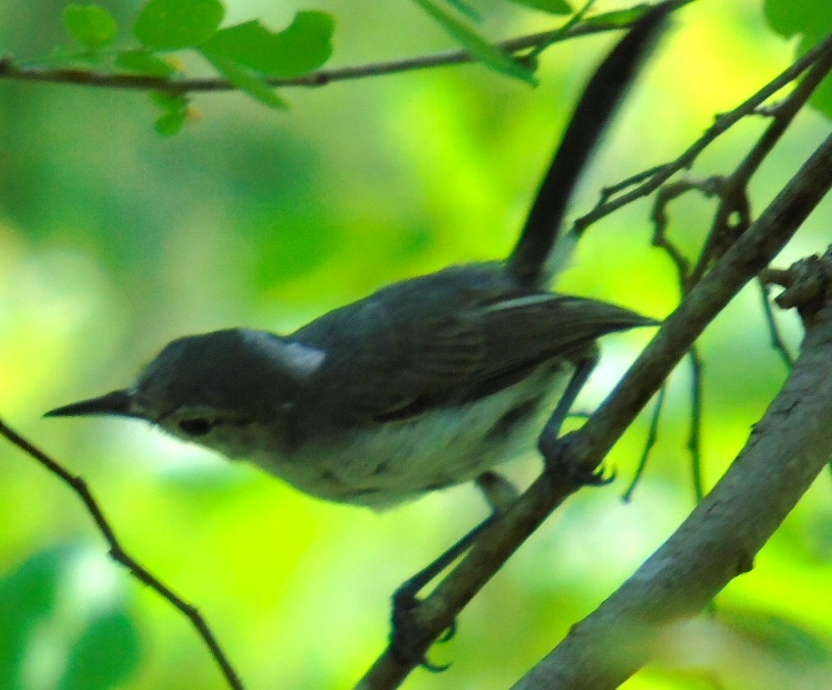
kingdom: Animalia
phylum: Chordata
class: Aves
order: Passeriformes
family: Polioptilidae
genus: Polioptila
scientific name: Polioptila caerulea
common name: Blue-gray gnatcatcher
